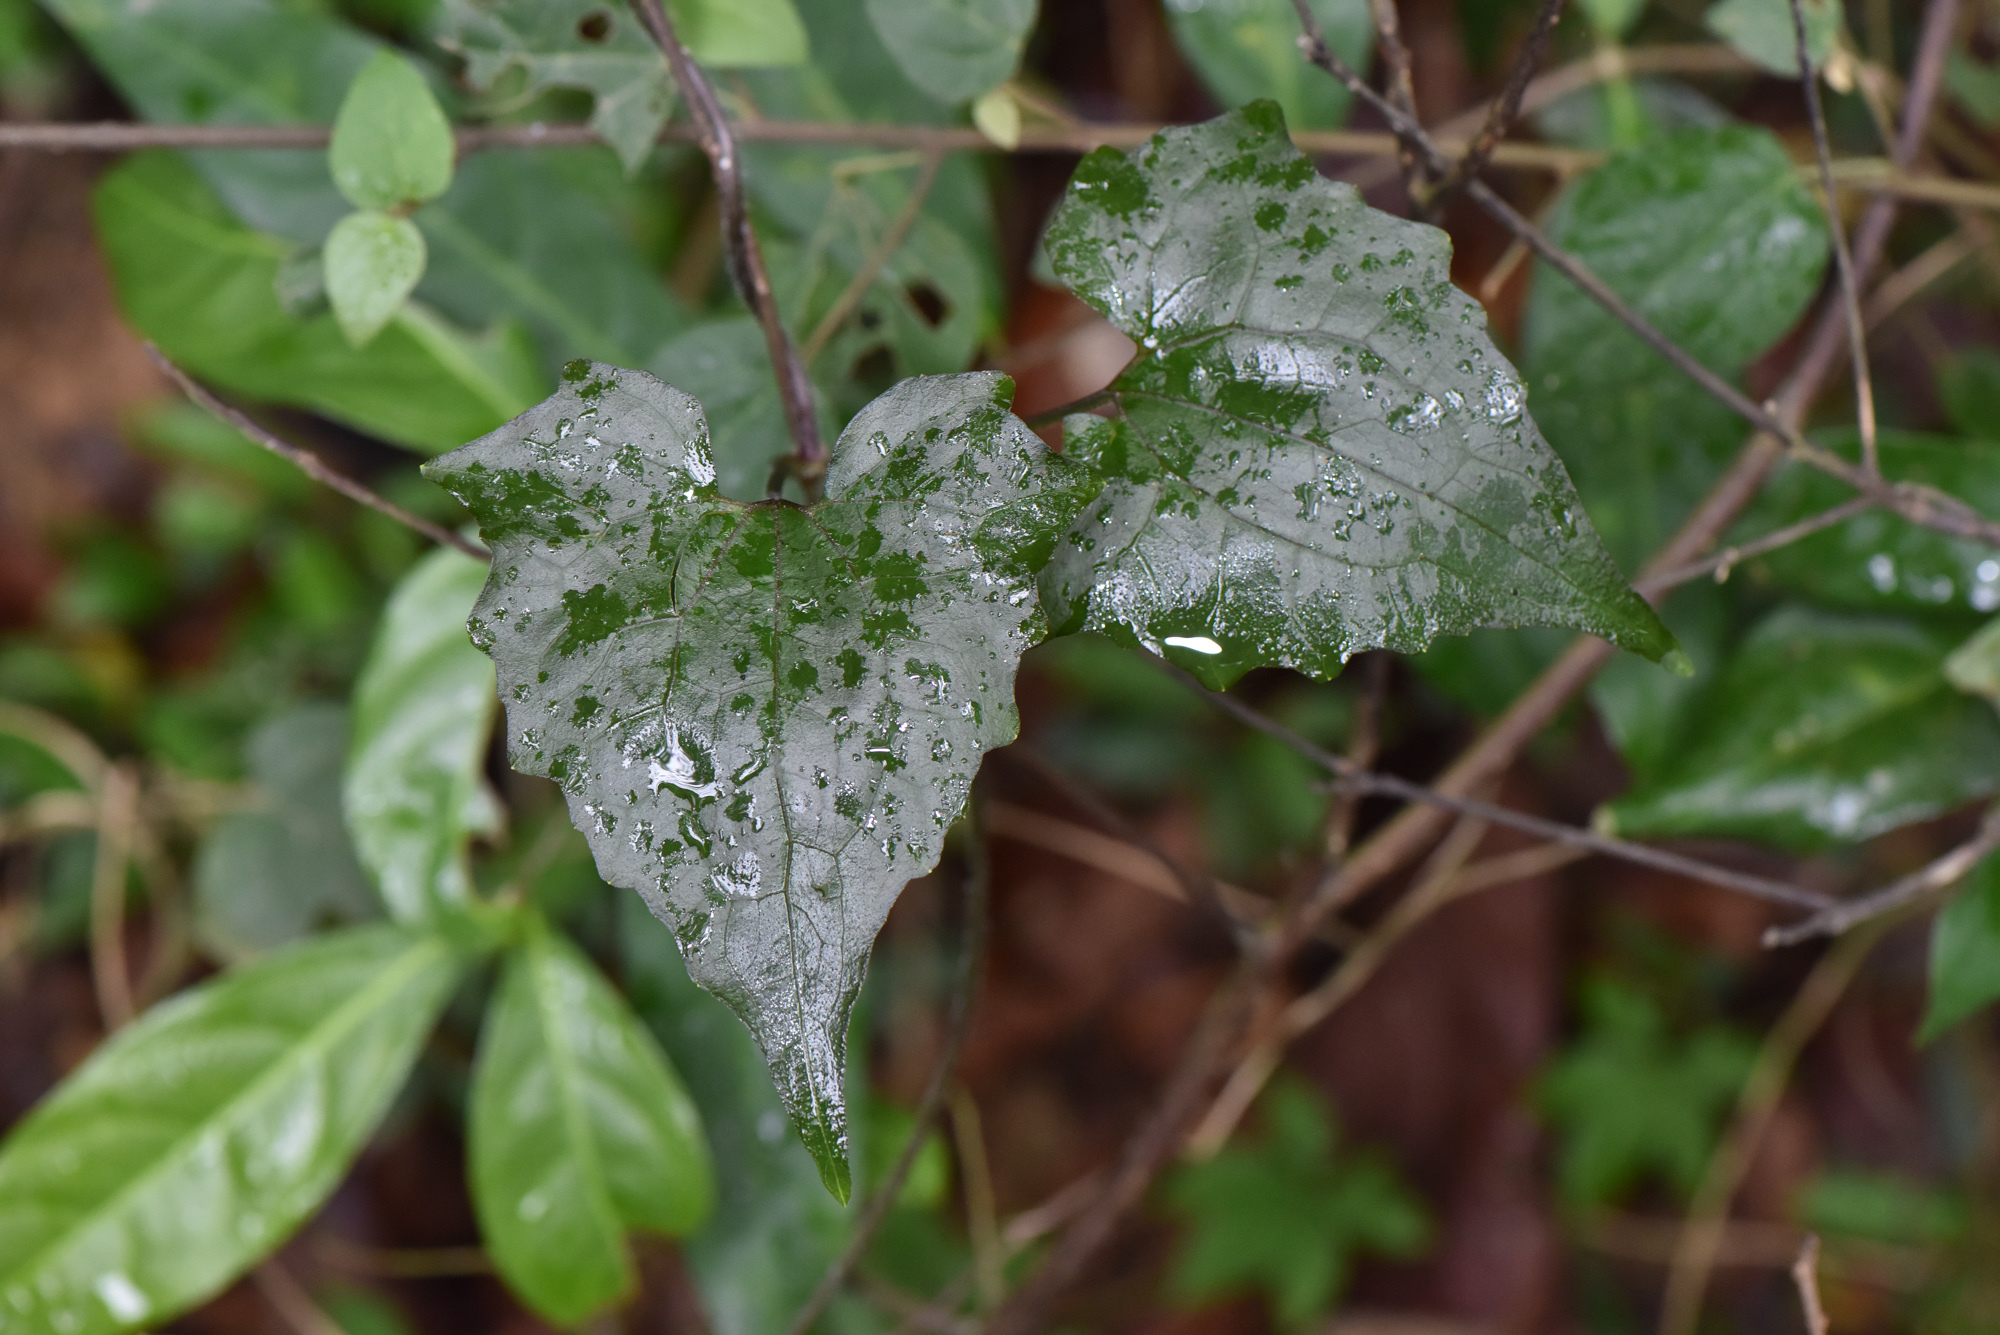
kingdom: Plantae
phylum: Tracheophyta
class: Magnoliopsida
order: Asterales
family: Asteraceae
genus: Mikania
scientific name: Mikania micrantha
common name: Mile-a-minute
